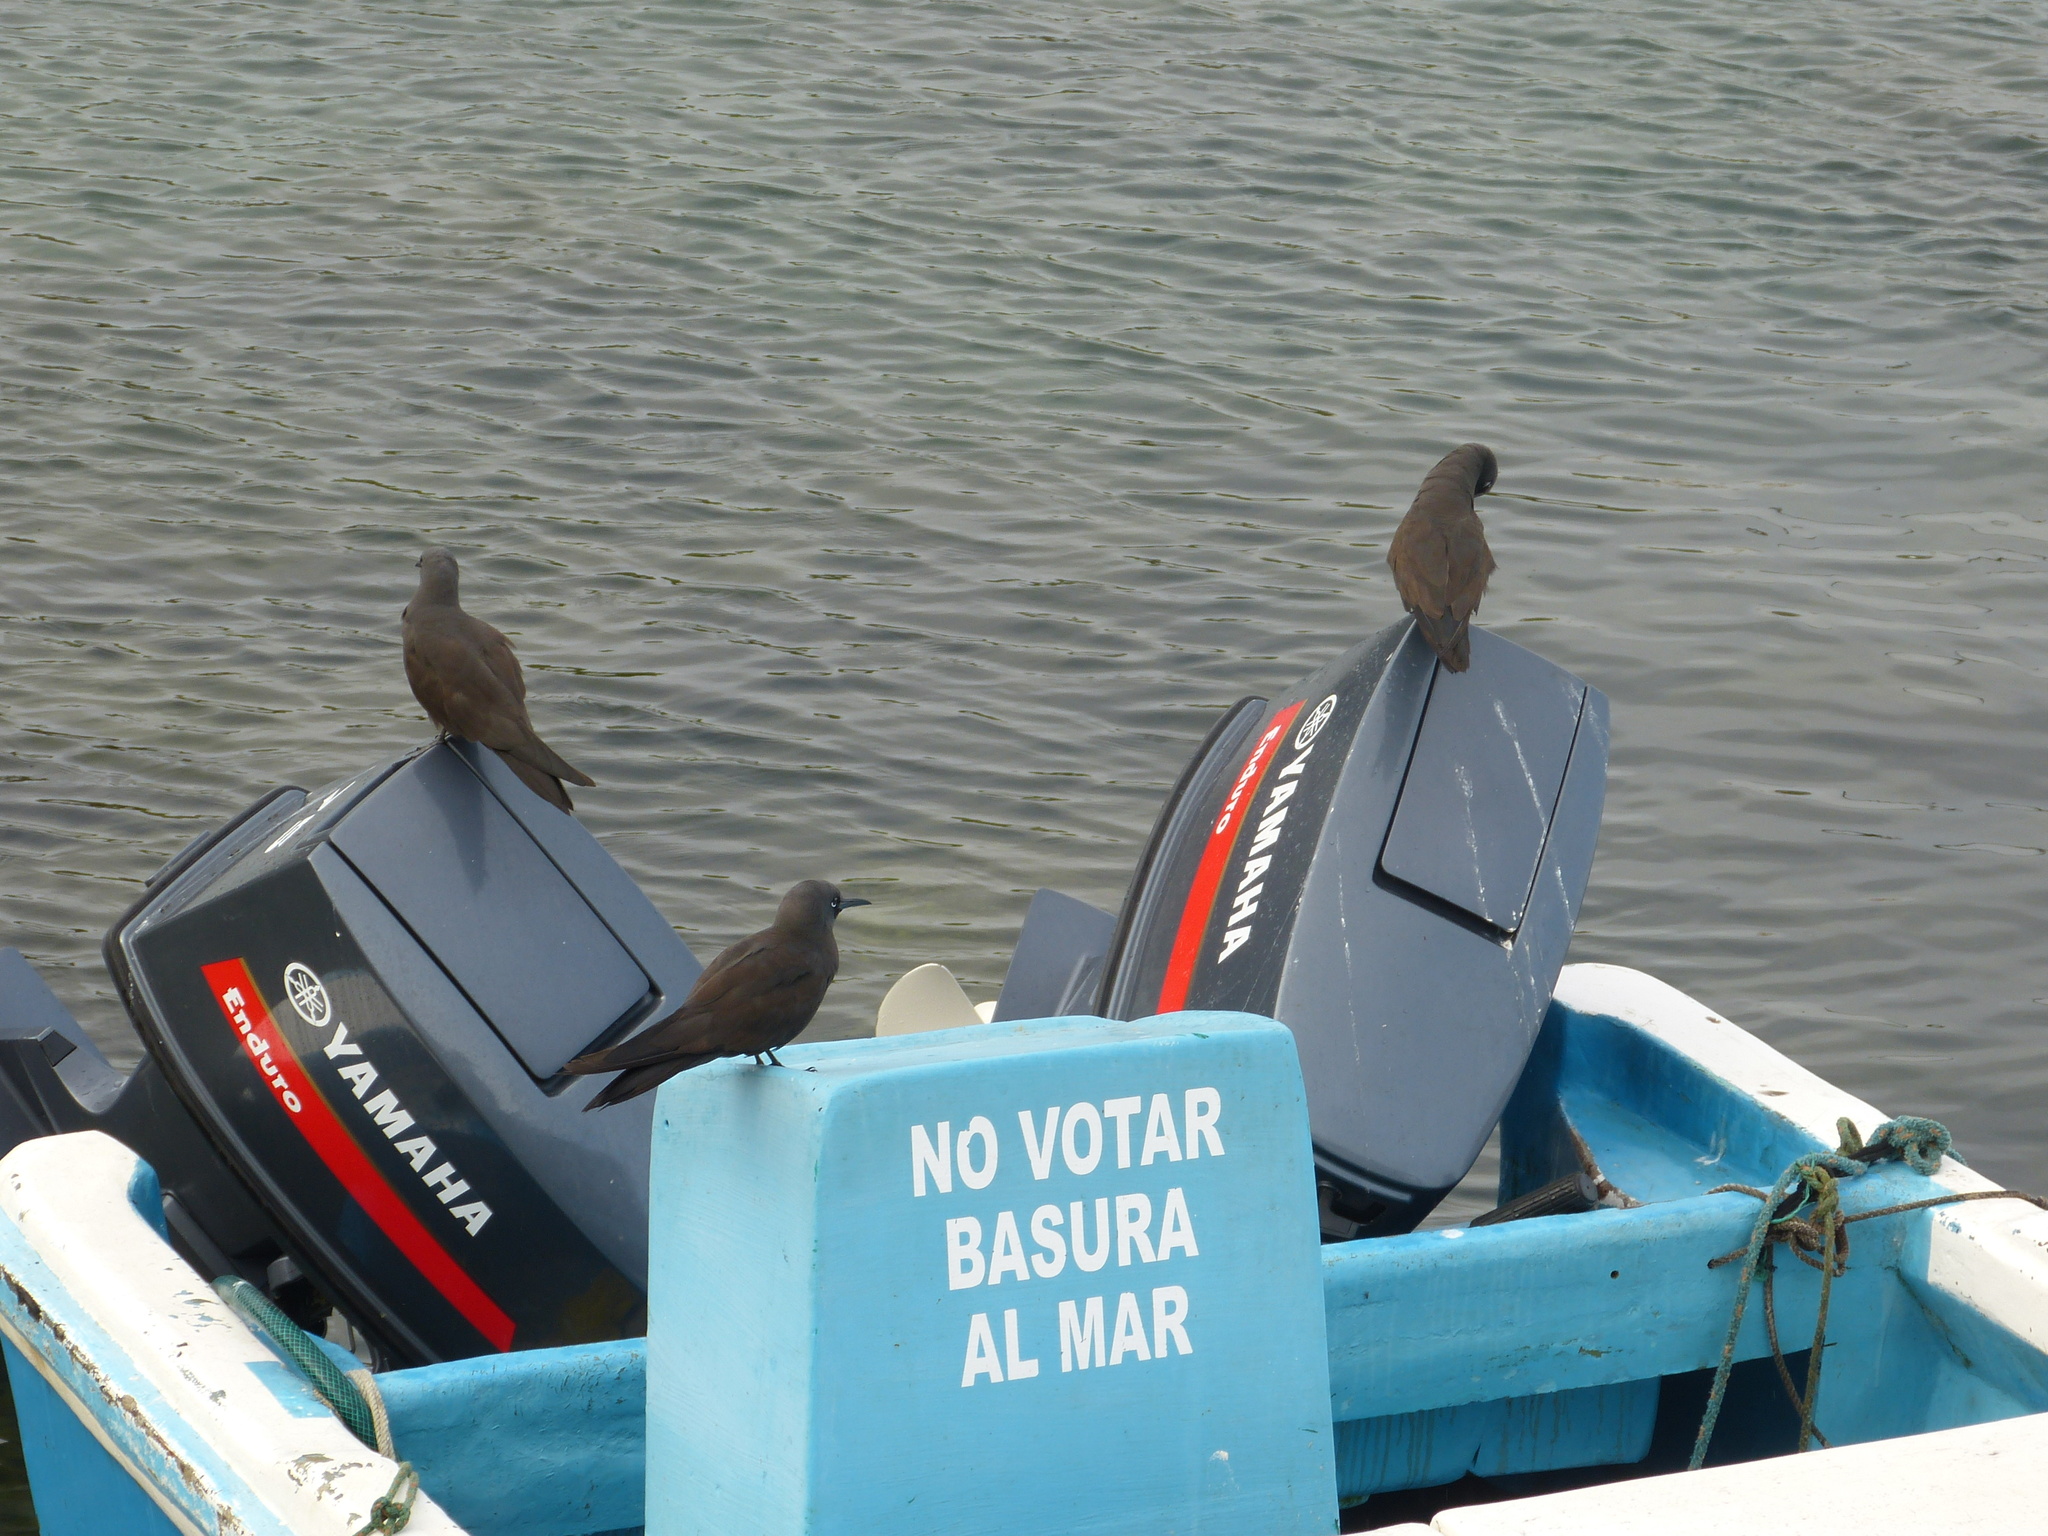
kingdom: Animalia
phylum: Chordata
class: Aves
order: Charadriiformes
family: Laridae
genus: Anous
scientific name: Anous stolidus
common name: Brown noddy
